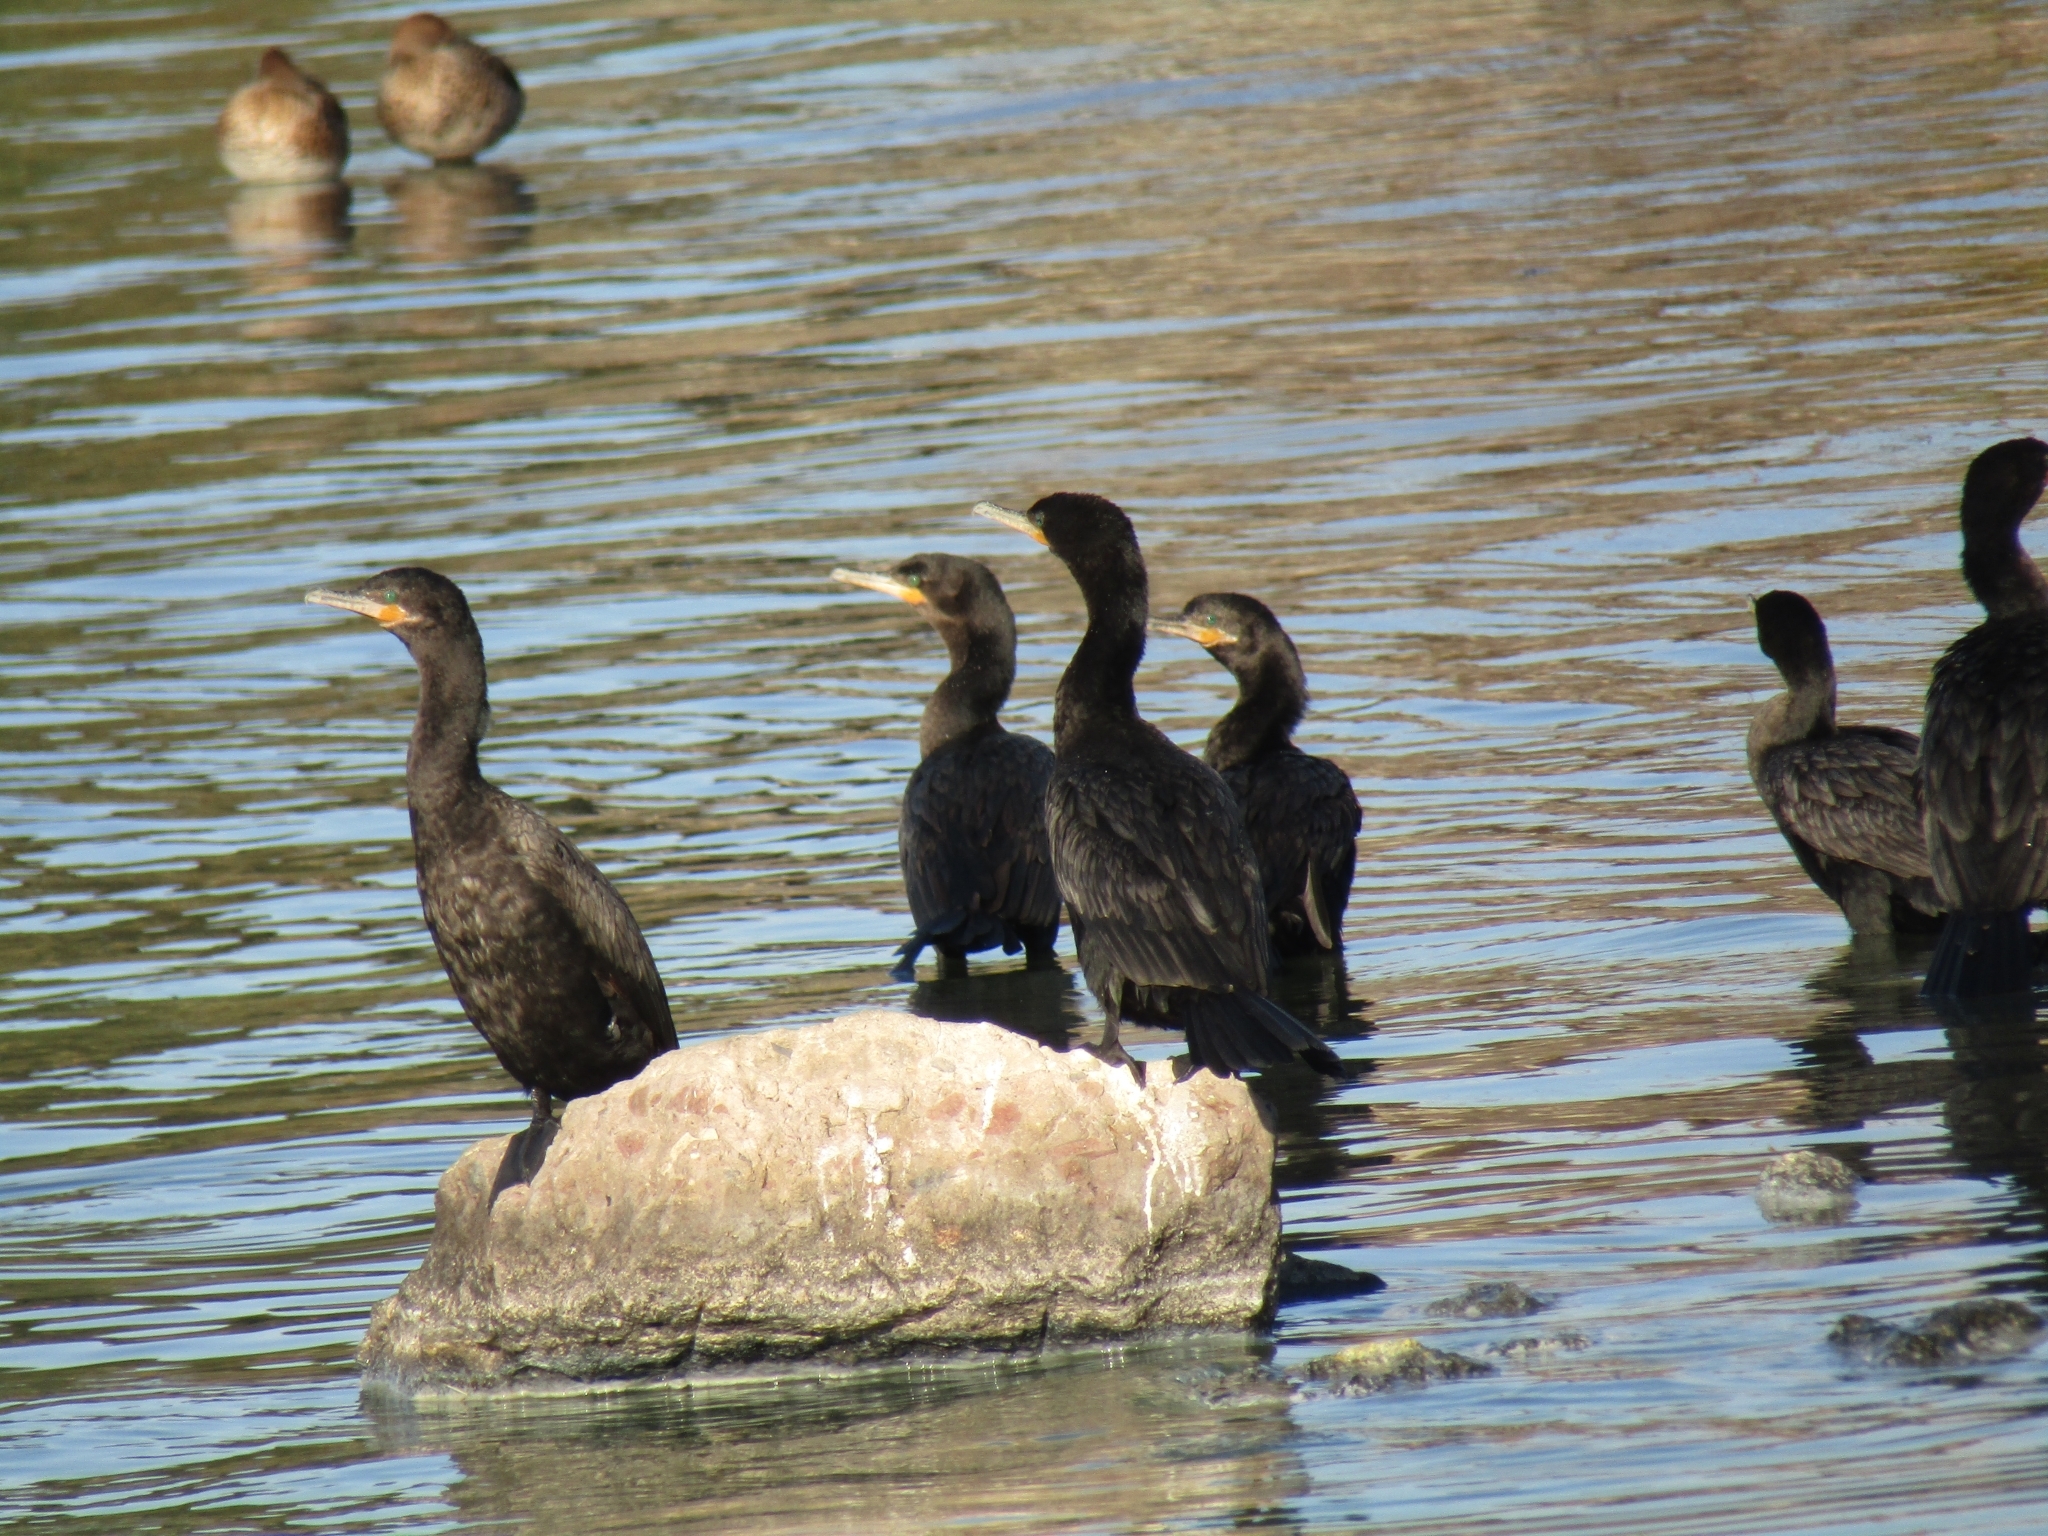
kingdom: Animalia
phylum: Chordata
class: Aves
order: Suliformes
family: Phalacrocoracidae
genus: Phalacrocorax
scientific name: Phalacrocorax brasilianus
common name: Neotropic cormorant
